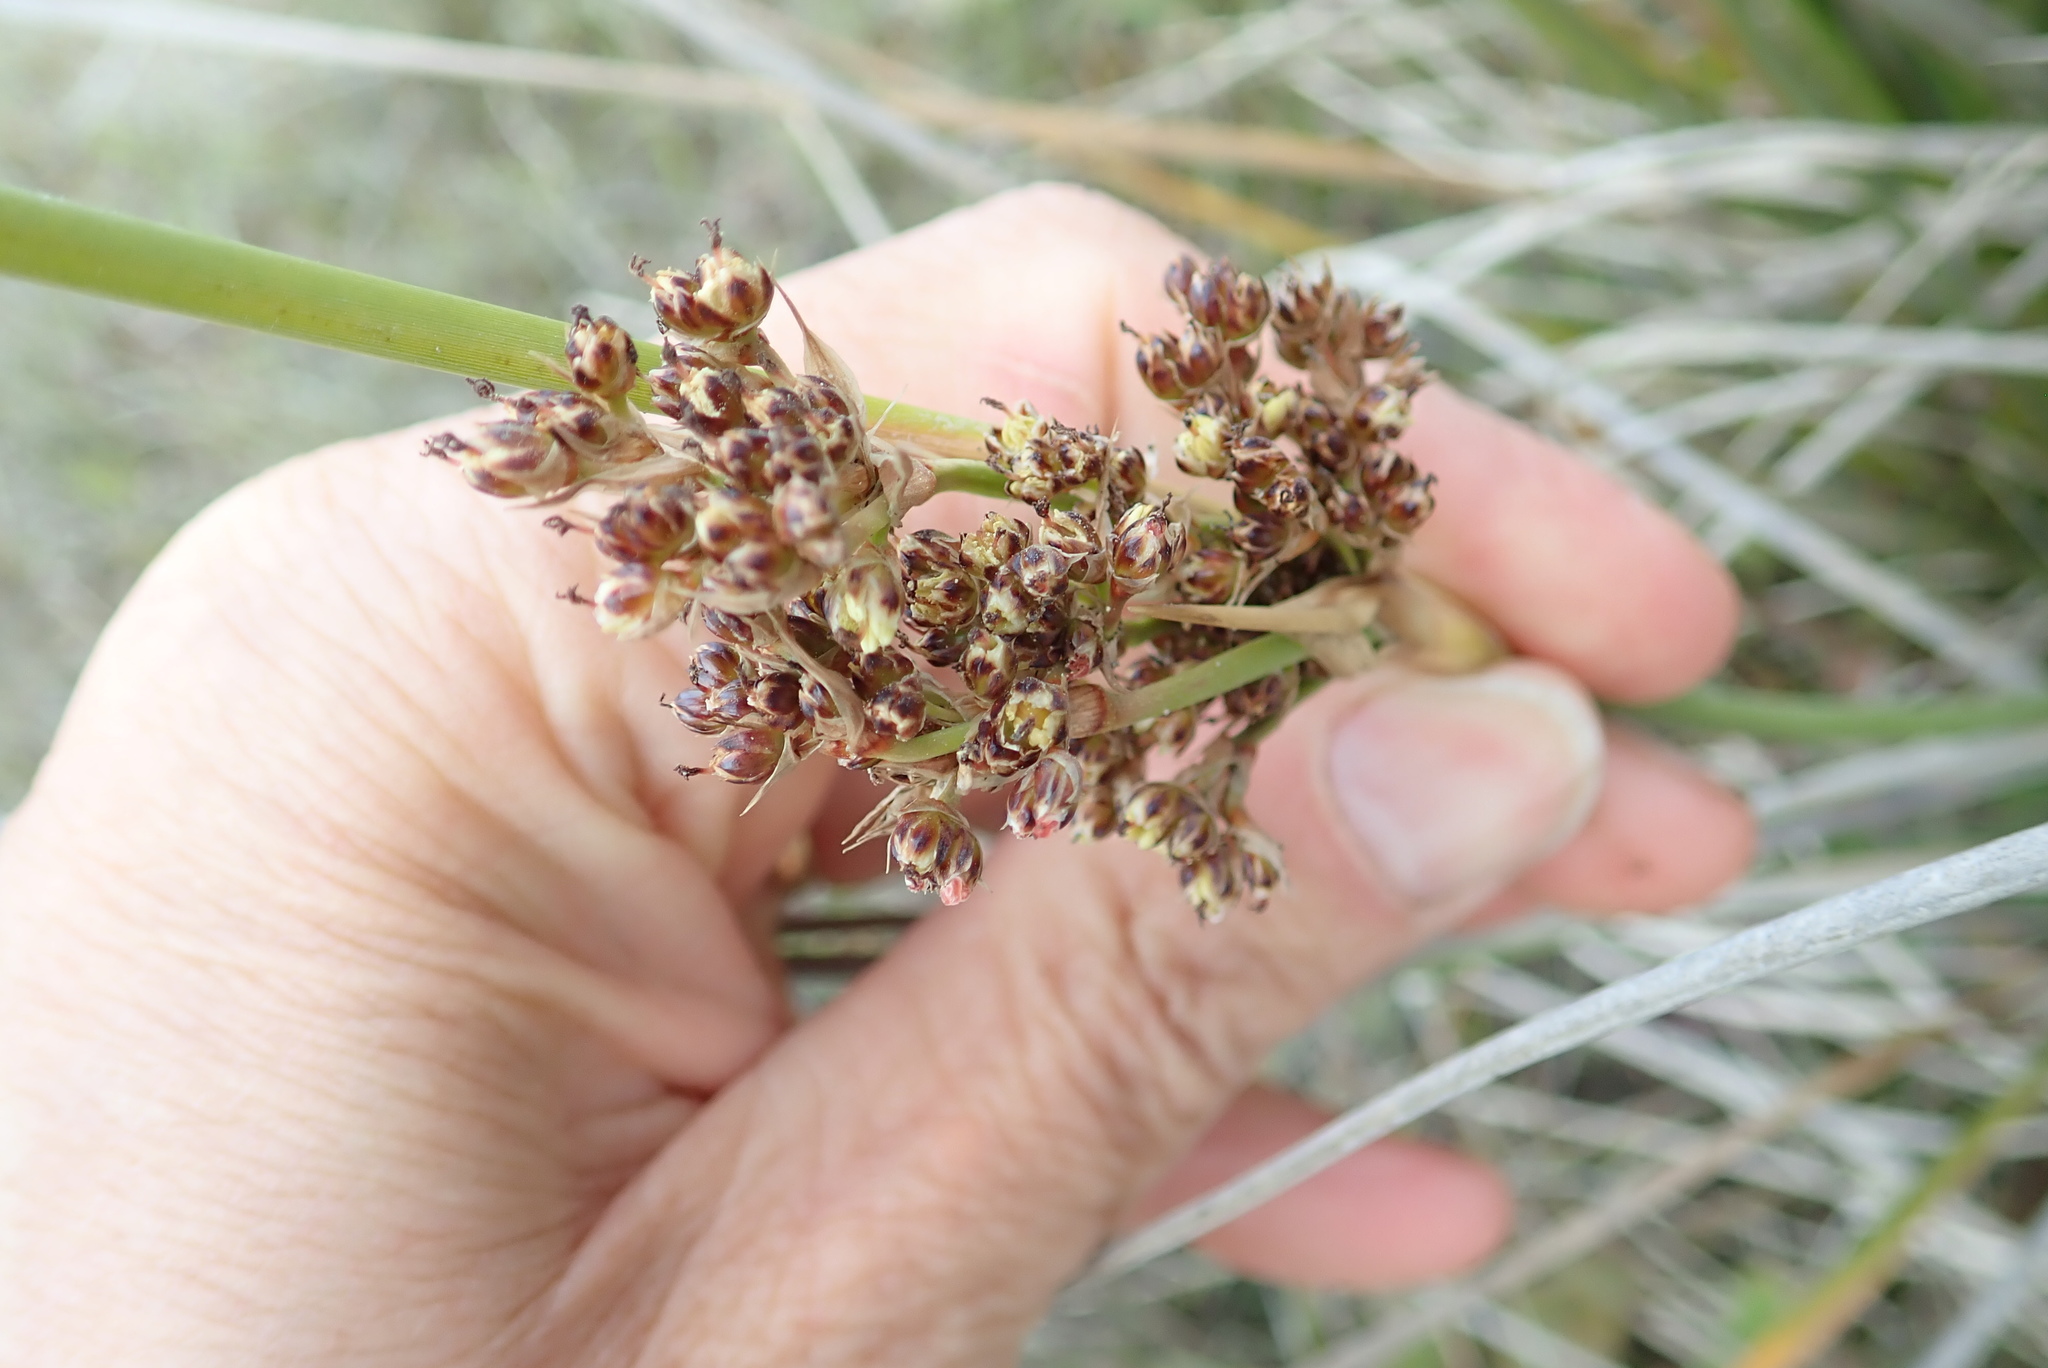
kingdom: Plantae
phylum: Tracheophyta
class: Liliopsida
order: Poales
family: Juncaceae
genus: Juncus
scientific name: Juncus acutus
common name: Sharp rush
